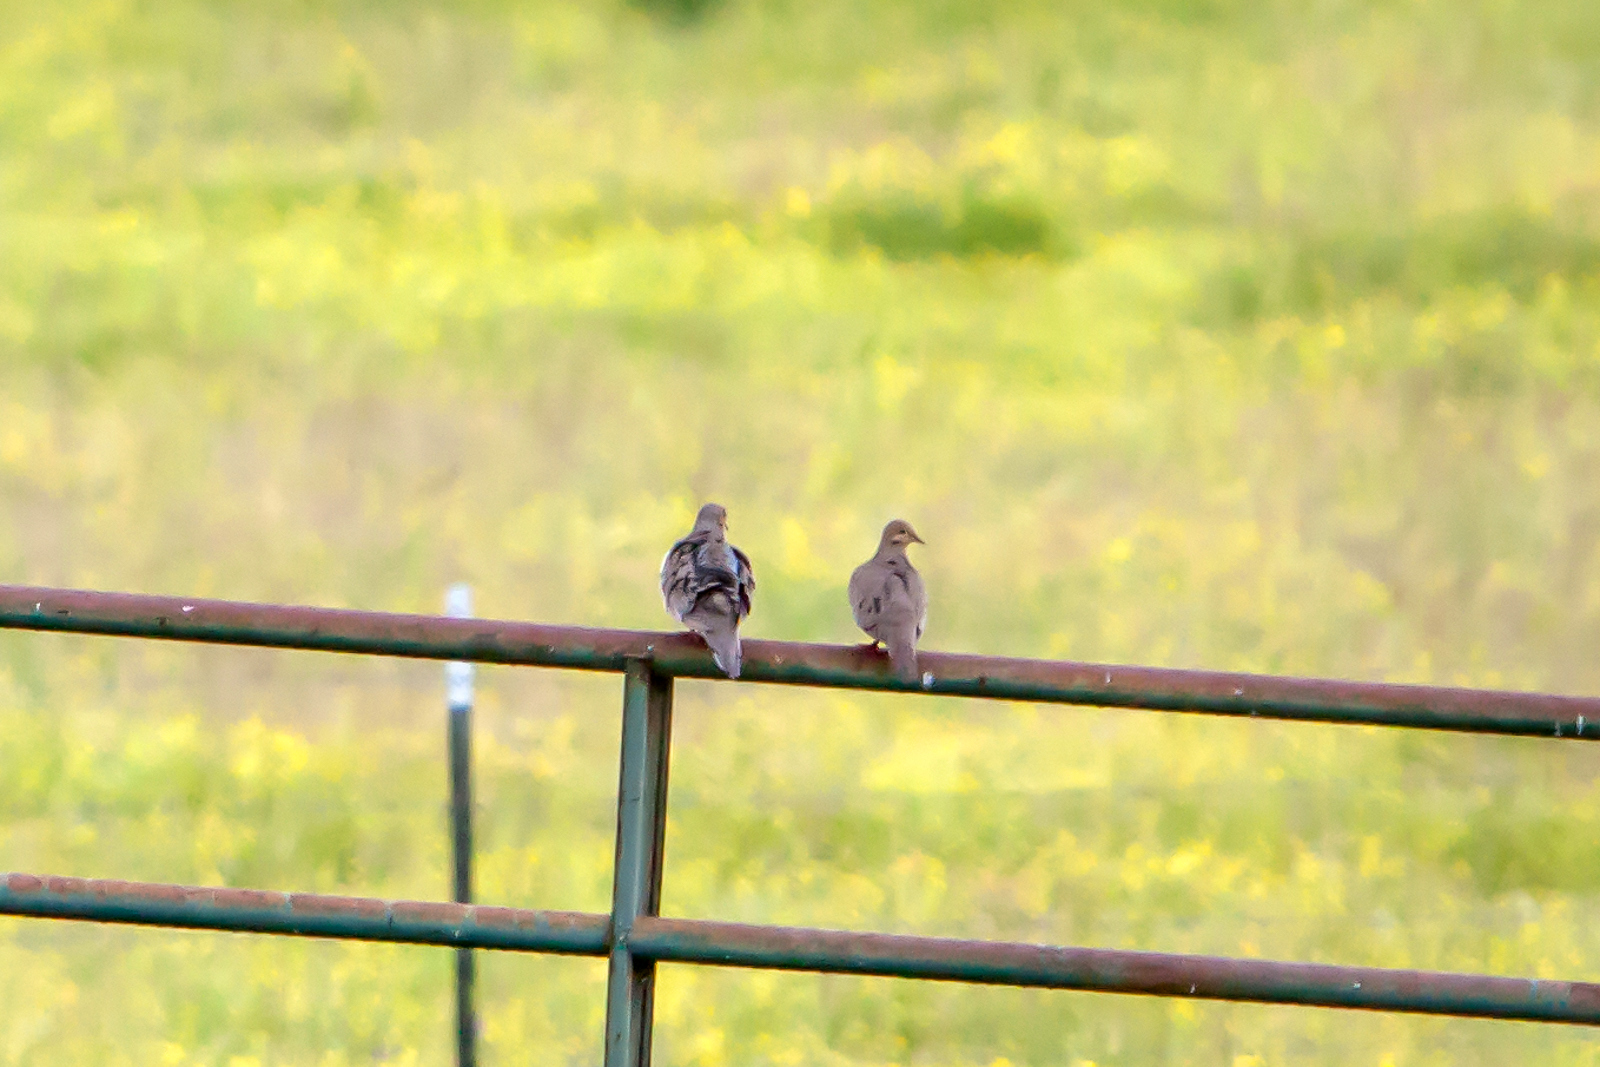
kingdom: Animalia
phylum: Chordata
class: Aves
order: Columbiformes
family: Columbidae
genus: Zenaida
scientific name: Zenaida macroura
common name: Mourning dove
